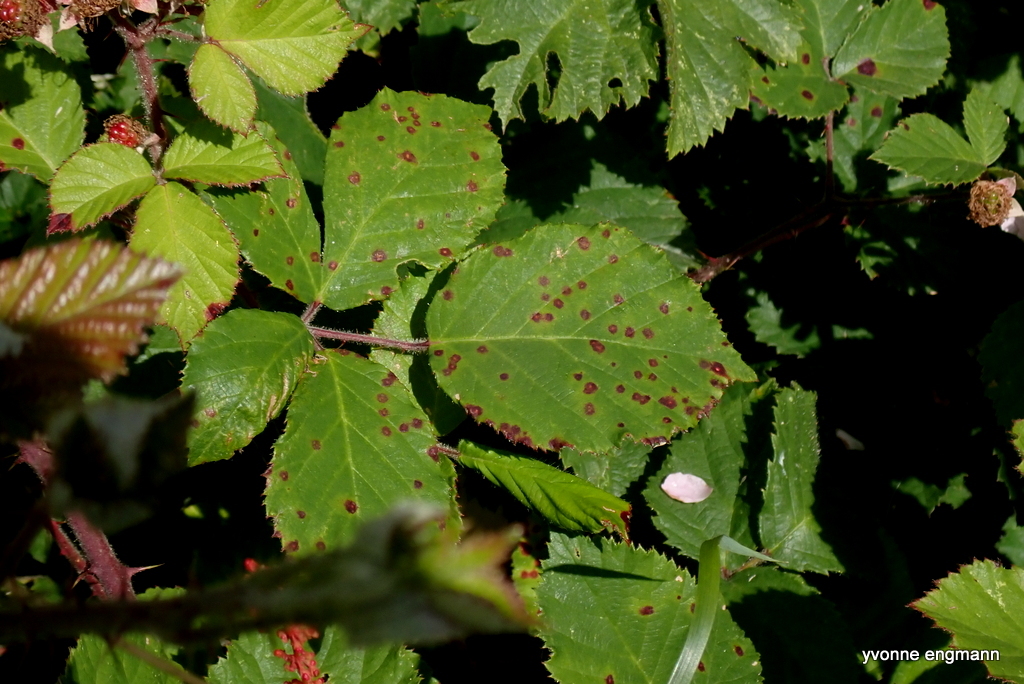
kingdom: Fungi
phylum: Basidiomycota
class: Pucciniomycetes
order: Pucciniales
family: Phragmidiaceae
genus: Phragmidium
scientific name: Phragmidium violaceum
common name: Violet bramble rust
